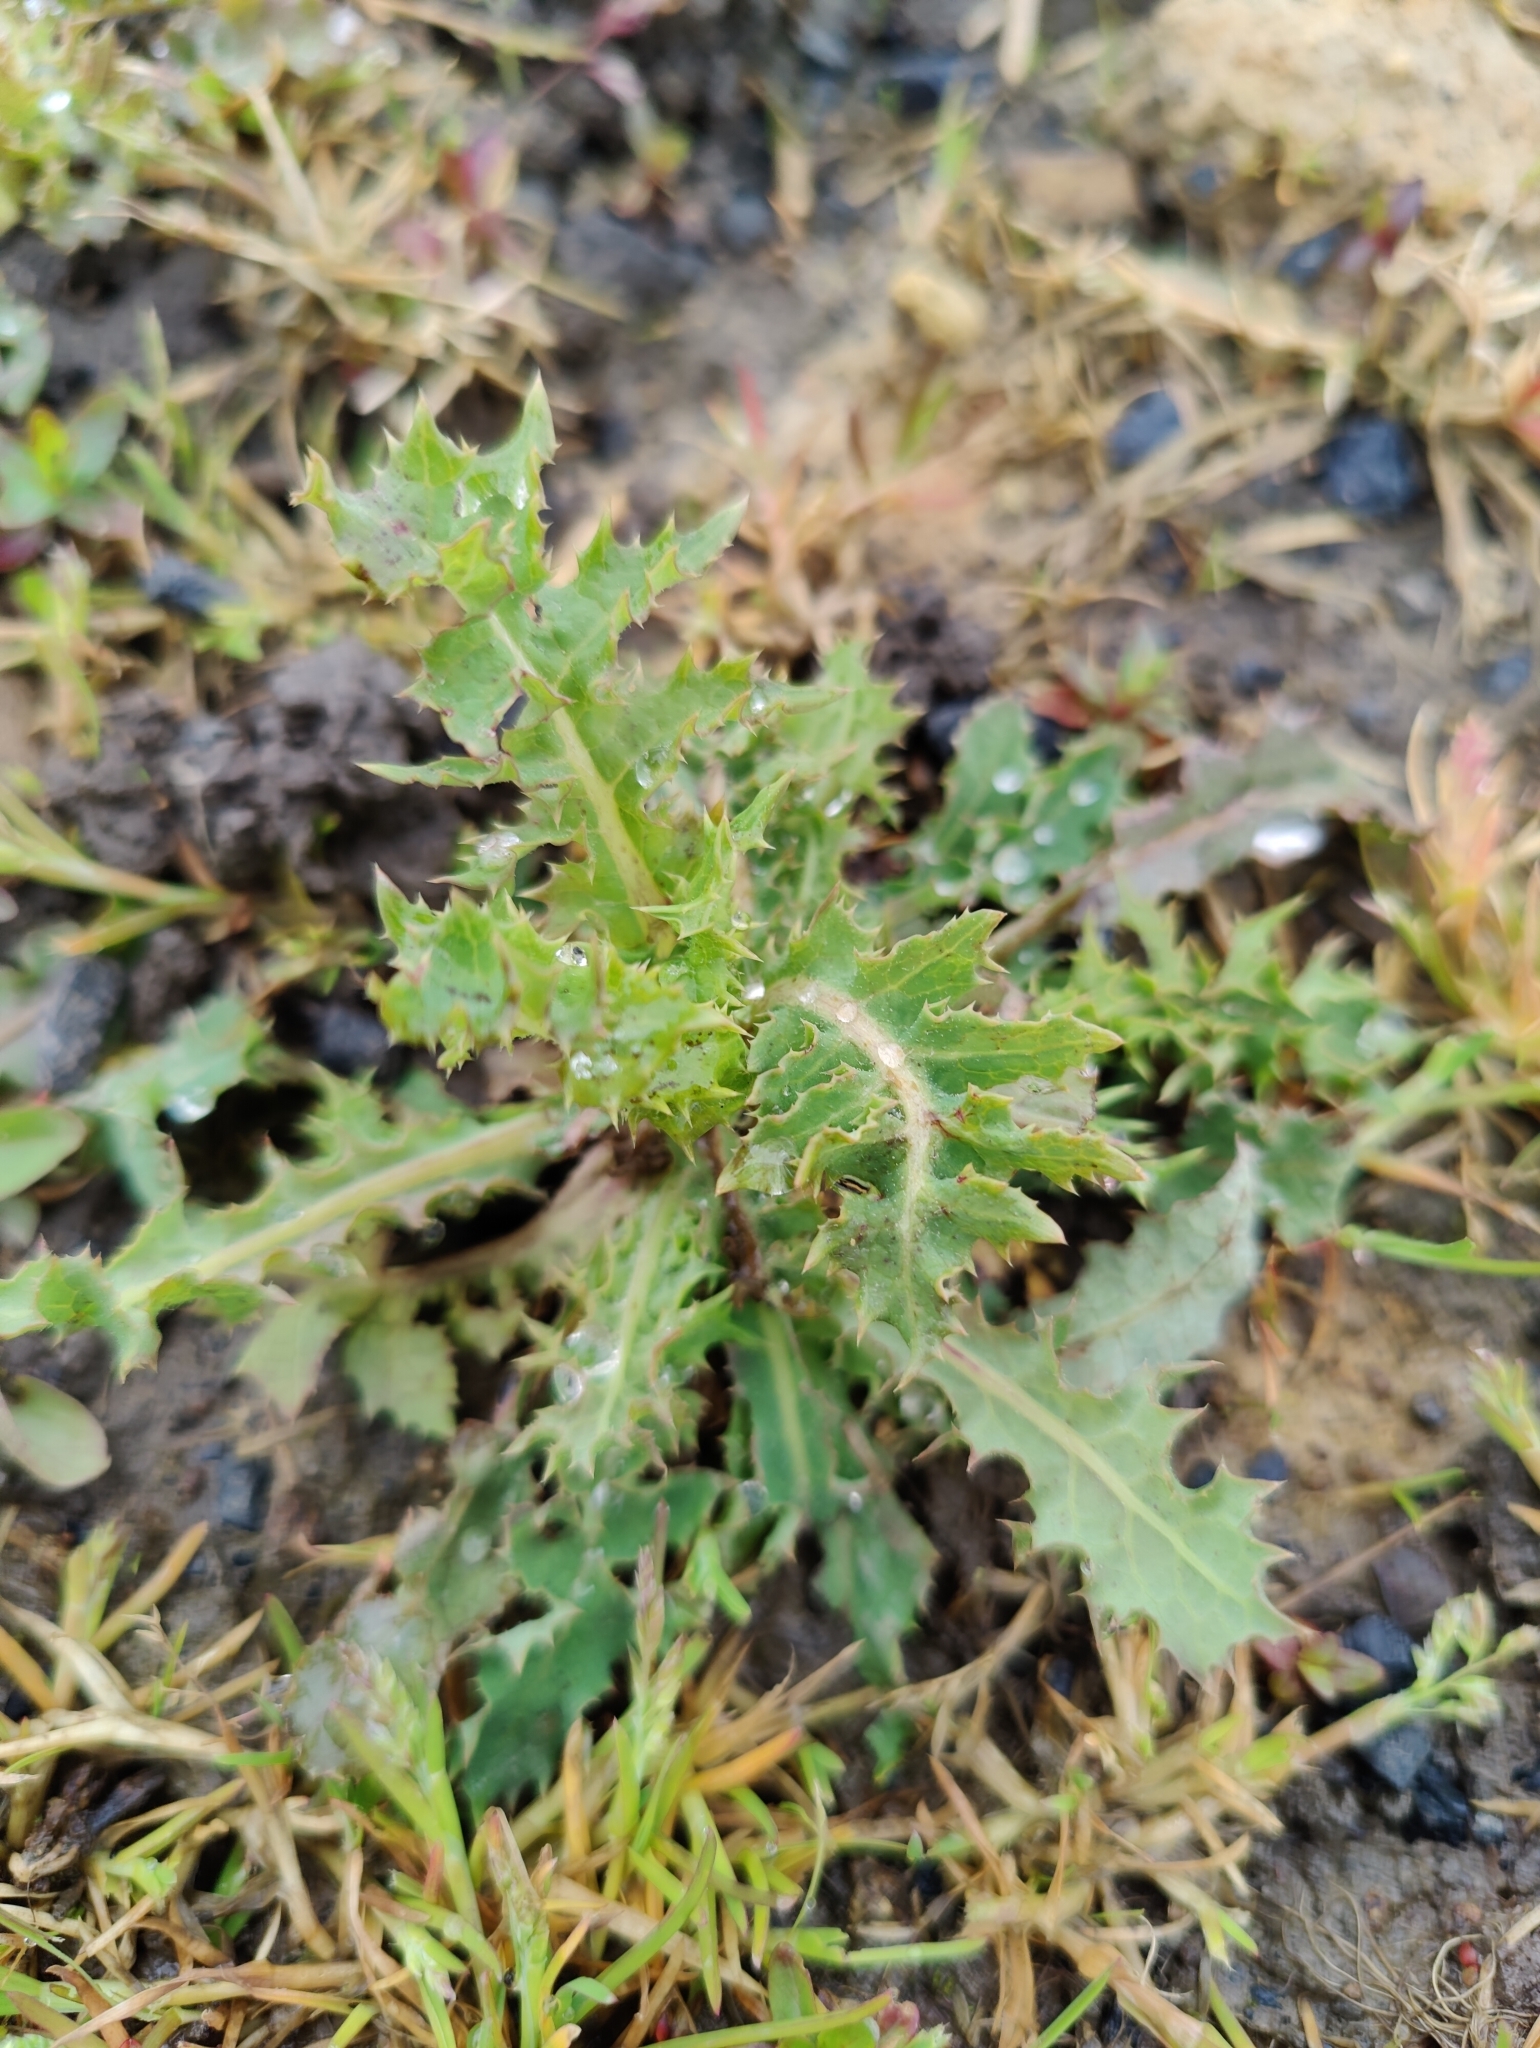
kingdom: Plantae
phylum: Tracheophyta
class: Magnoliopsida
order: Asterales
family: Asteraceae
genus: Sonchus
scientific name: Sonchus asper
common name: Prickly sow-thistle
